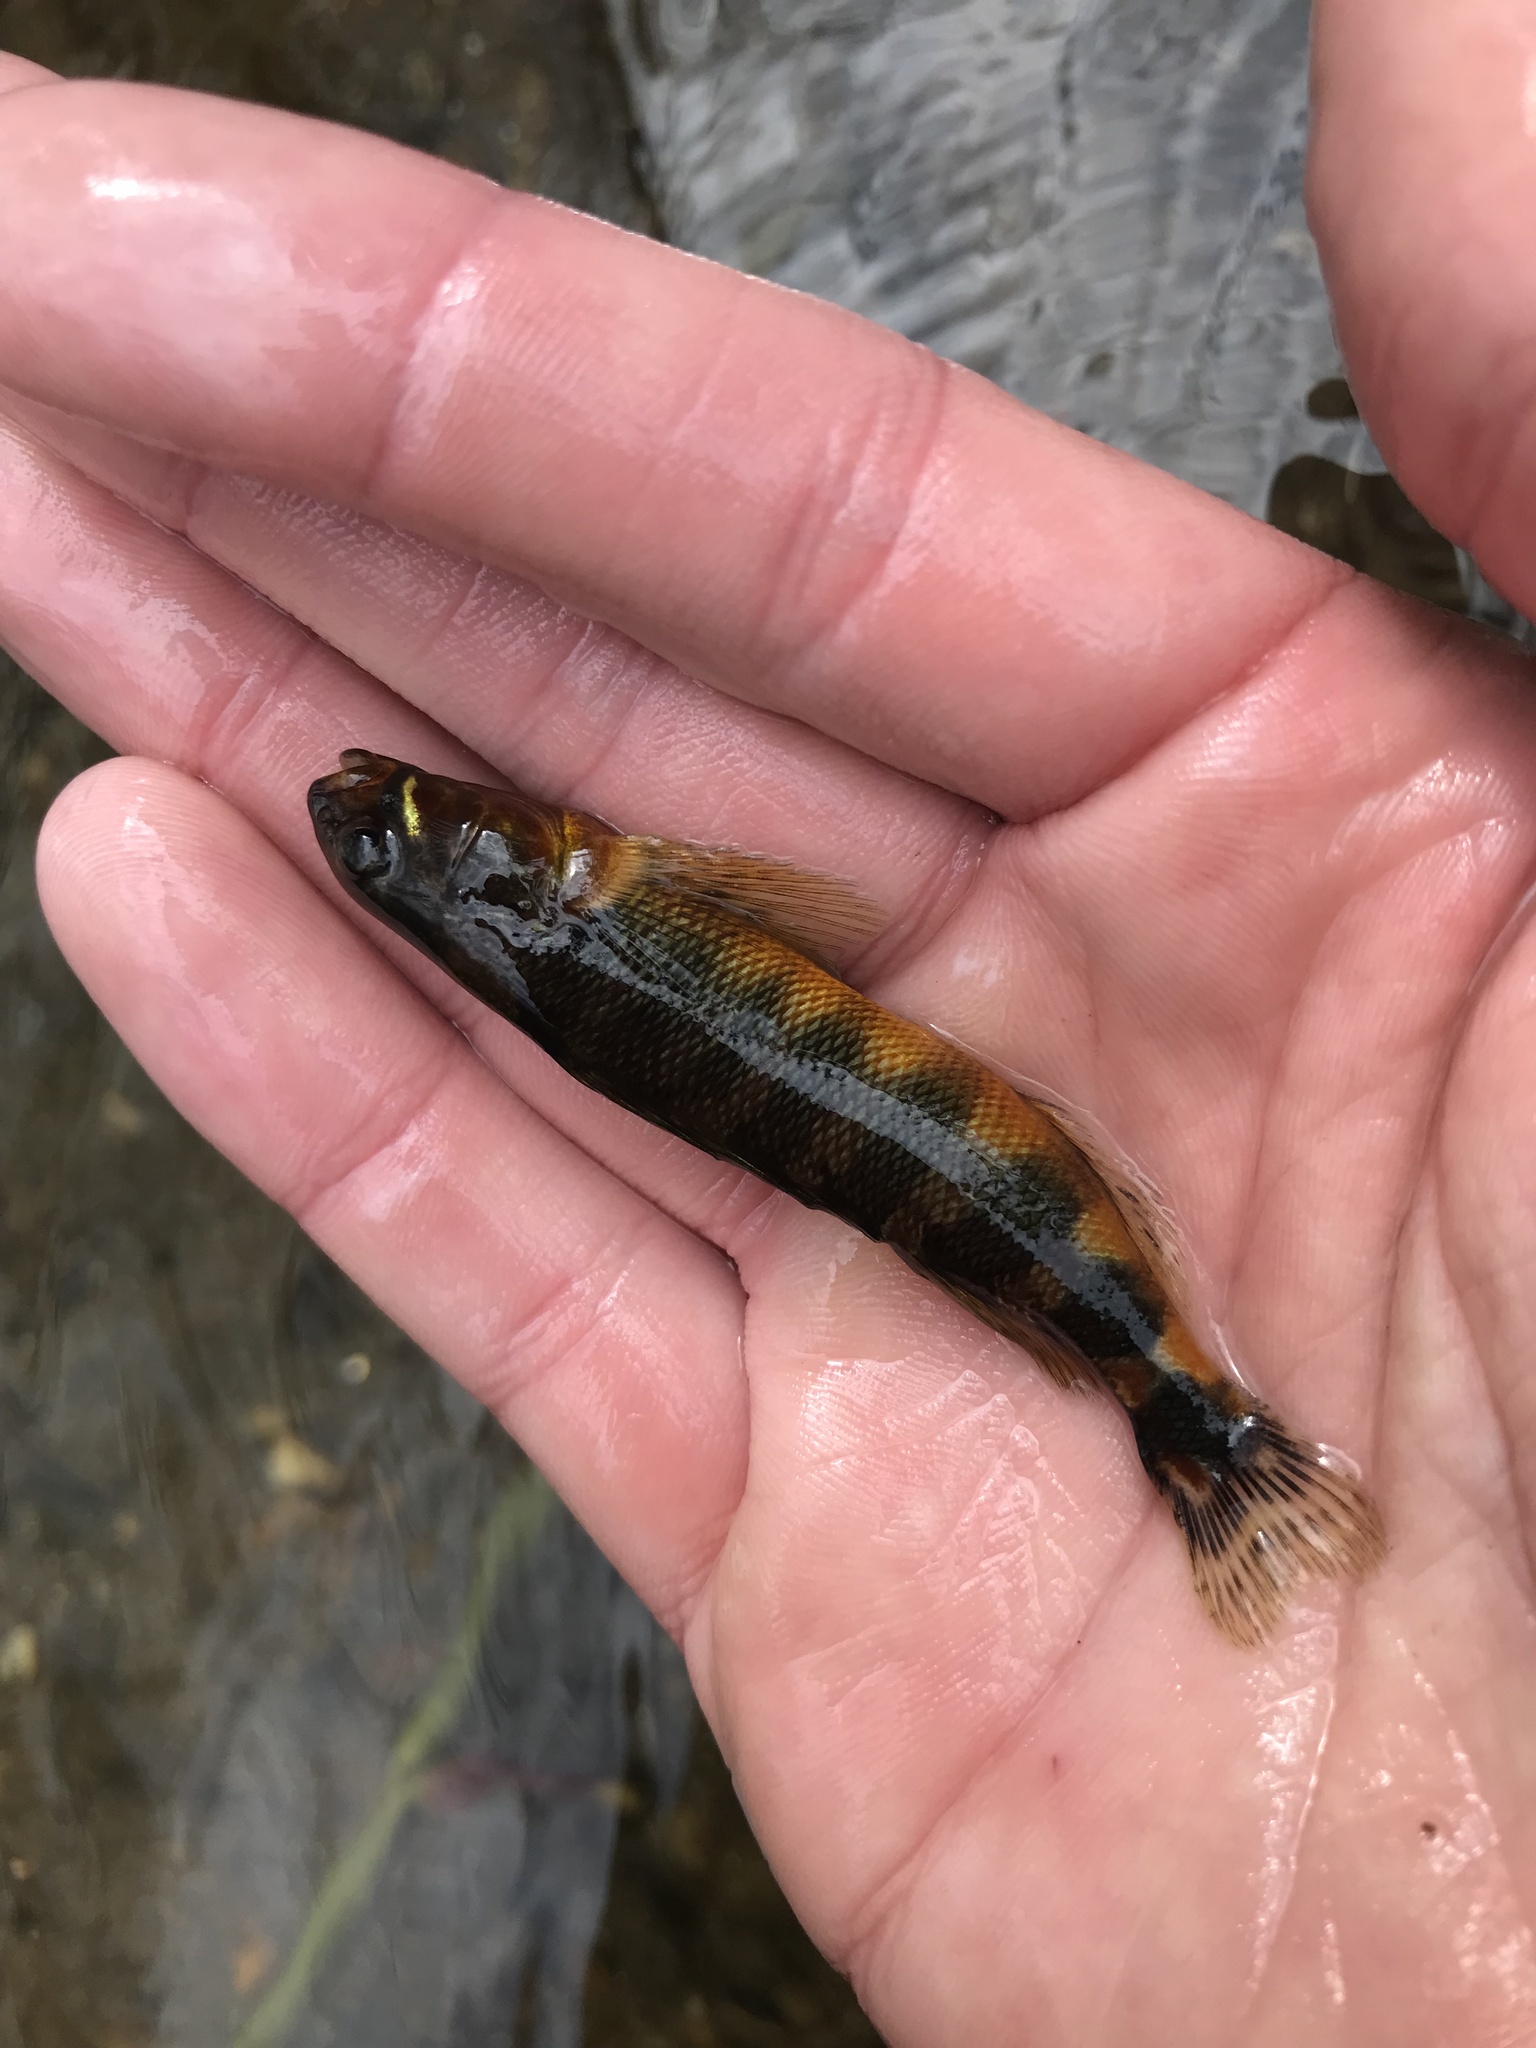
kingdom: Animalia
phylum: Chordata
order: Perciformes
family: Percidae
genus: Percina
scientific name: Percina evides
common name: Gilt darter
